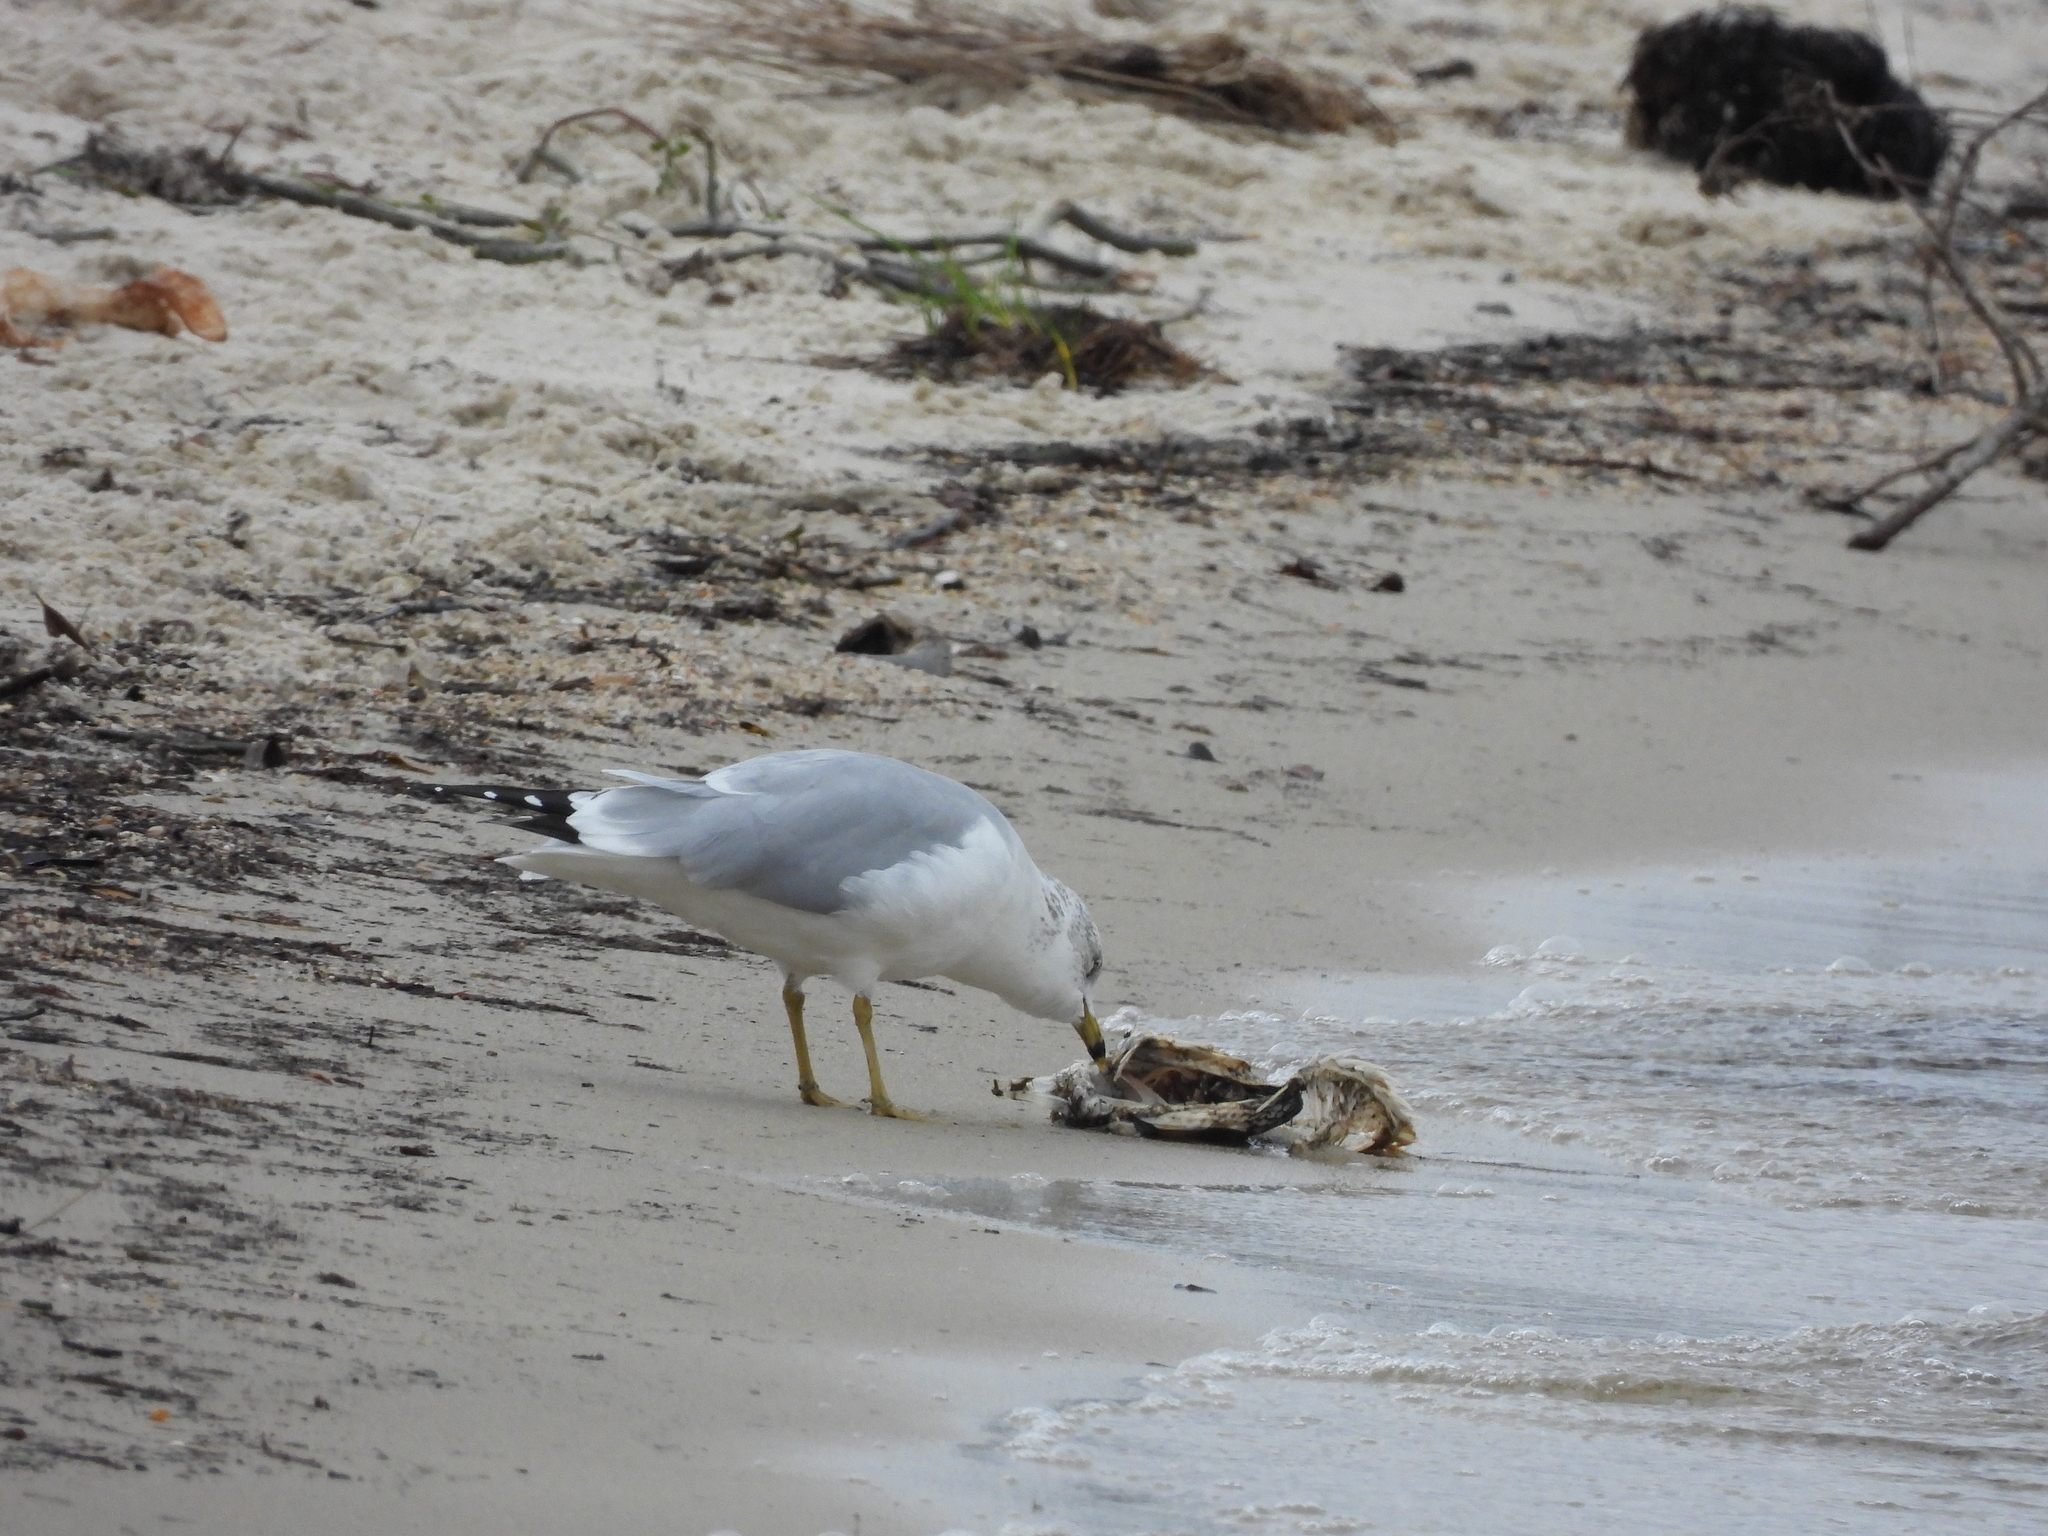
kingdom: Animalia
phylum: Chordata
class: Aves
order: Charadriiformes
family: Laridae
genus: Larus
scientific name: Larus delawarensis
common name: Ring-billed gull
